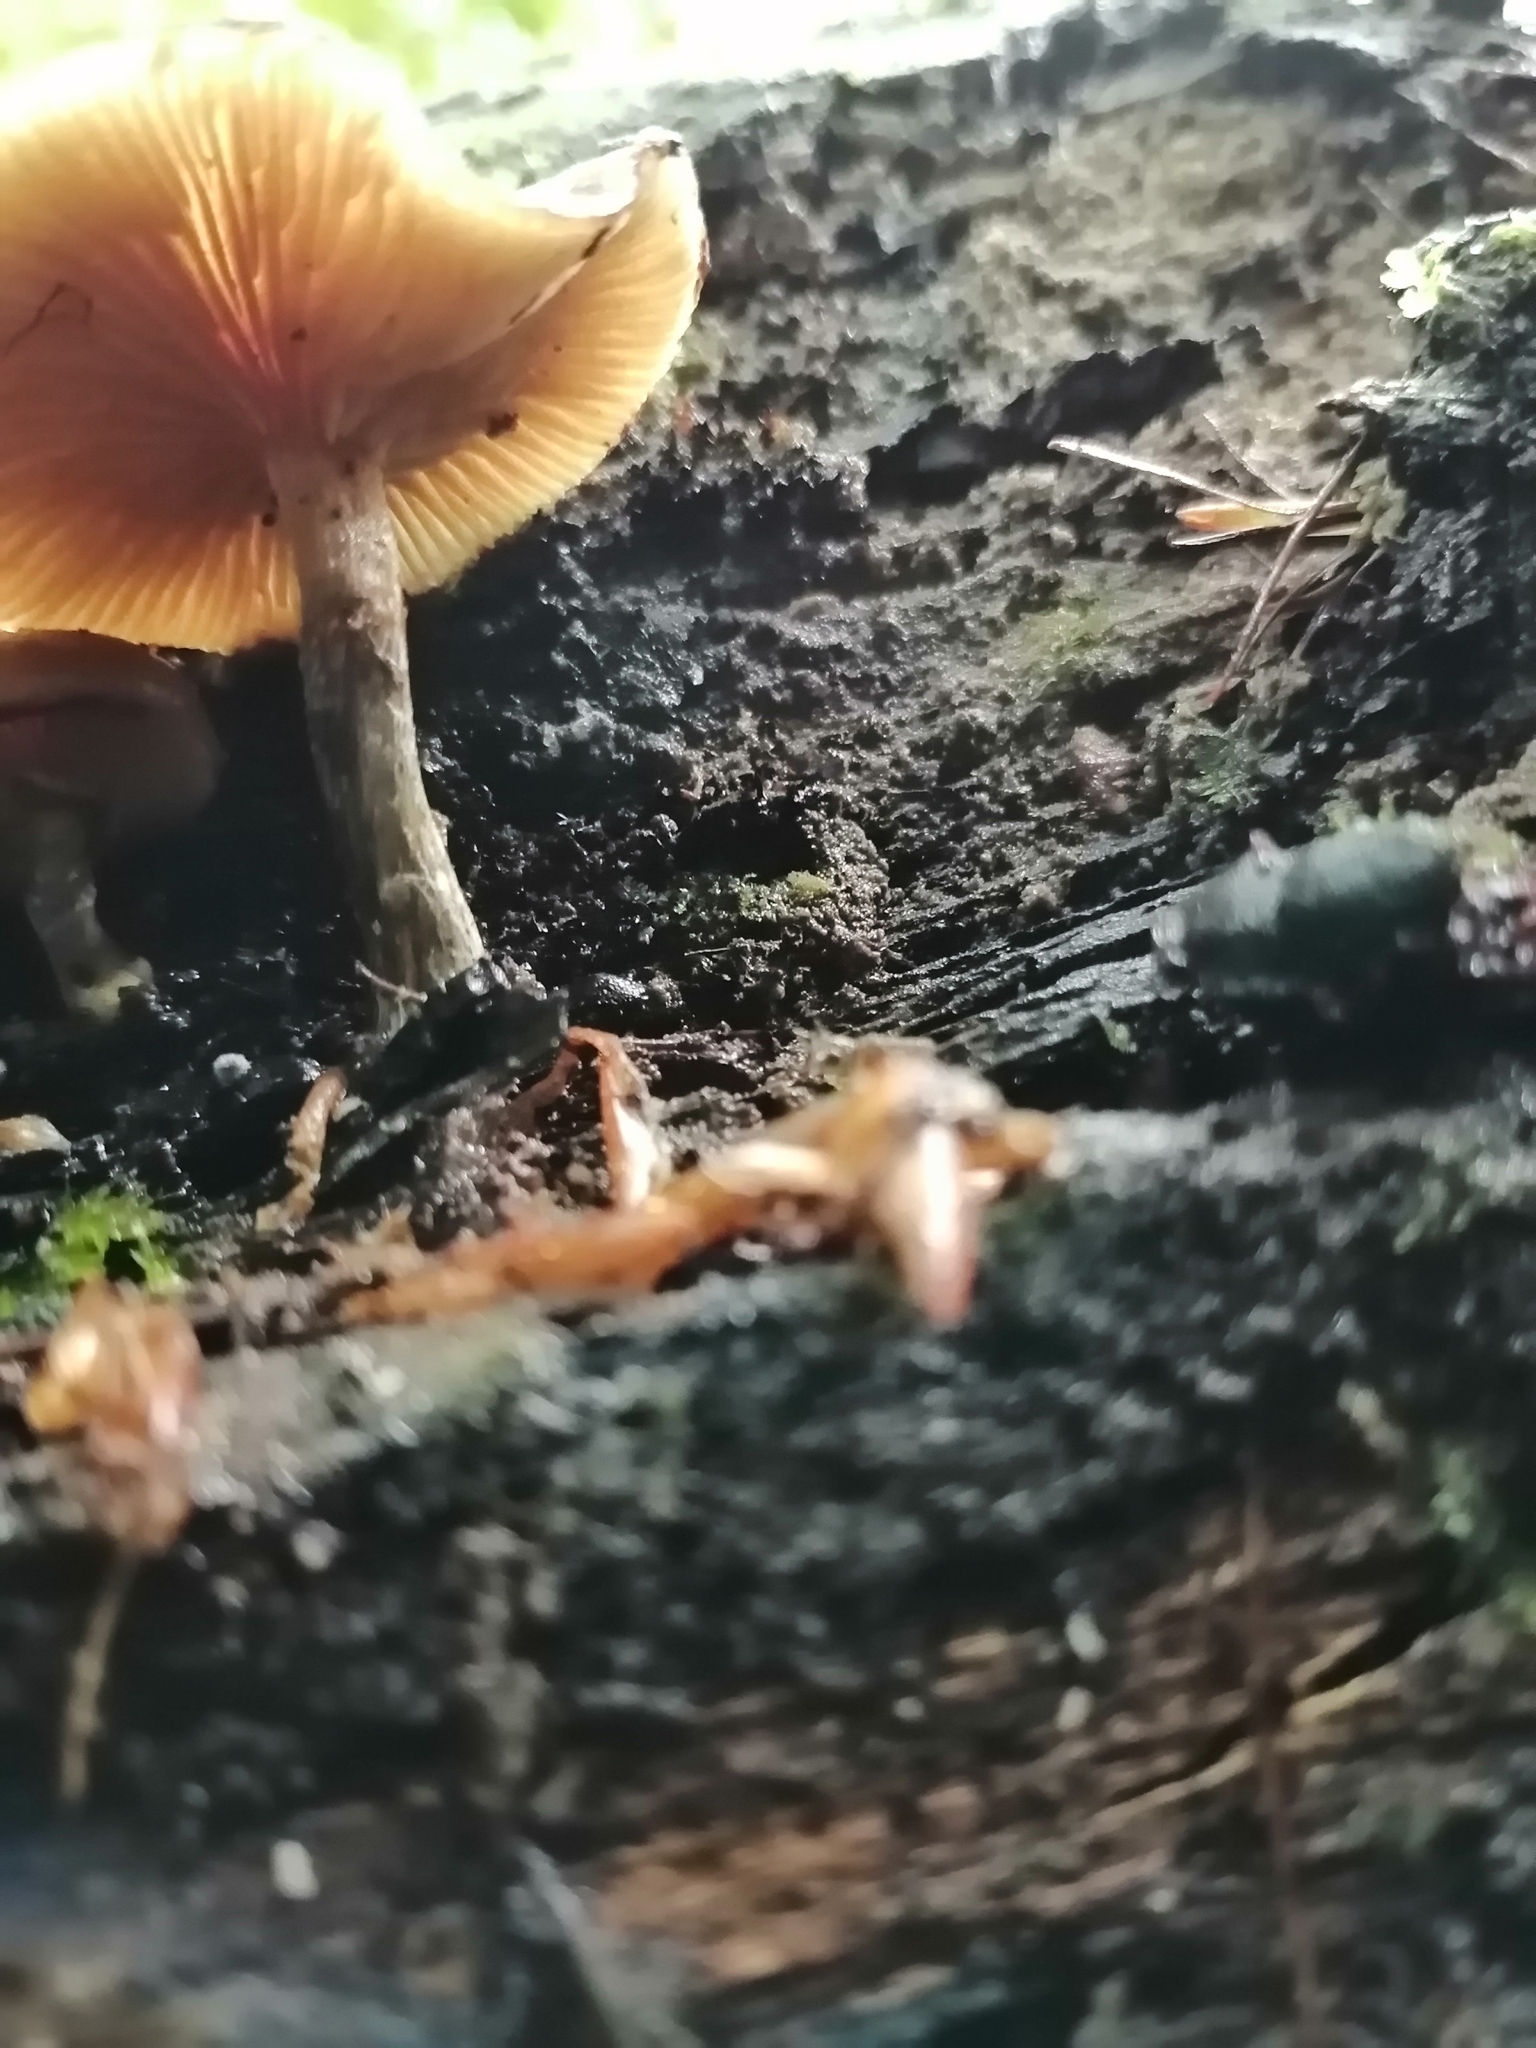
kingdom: Fungi
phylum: Basidiomycota
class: Agaricomycetes
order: Agaricales
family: Hymenogastraceae
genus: Galerina
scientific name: Galerina patagonica
